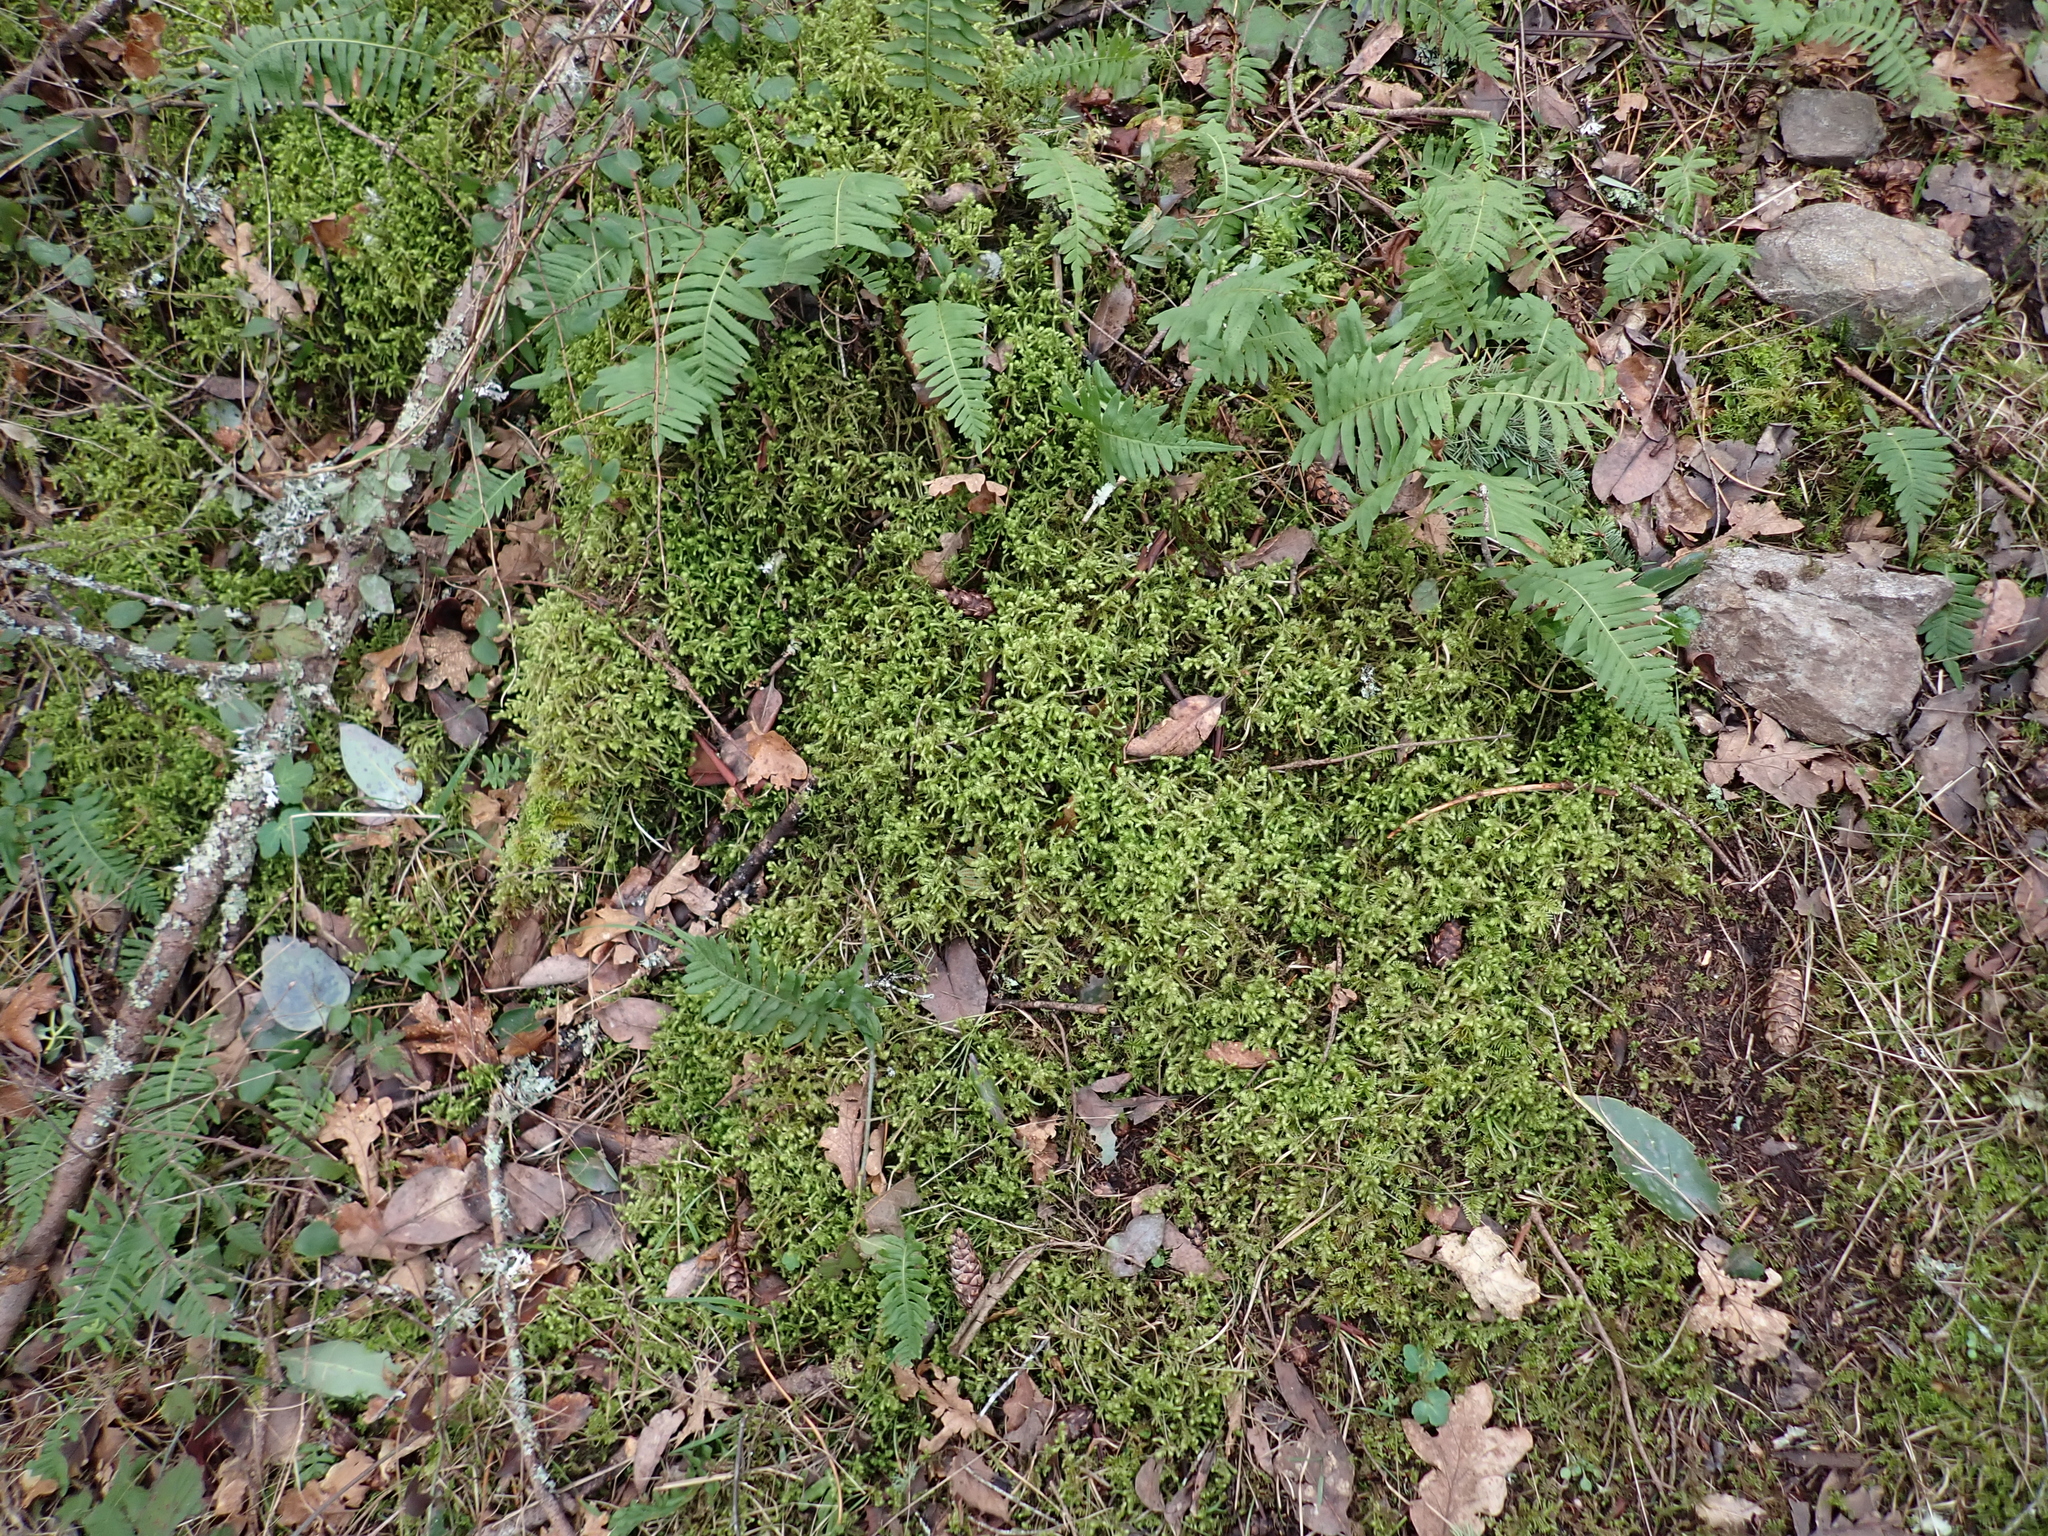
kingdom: Plantae
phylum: Bryophyta
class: Bryopsida
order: Hypnales
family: Hylocomiaceae
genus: Hylocomiadelphus
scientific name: Hylocomiadelphus triquetrus
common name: Rough goose neck moss
